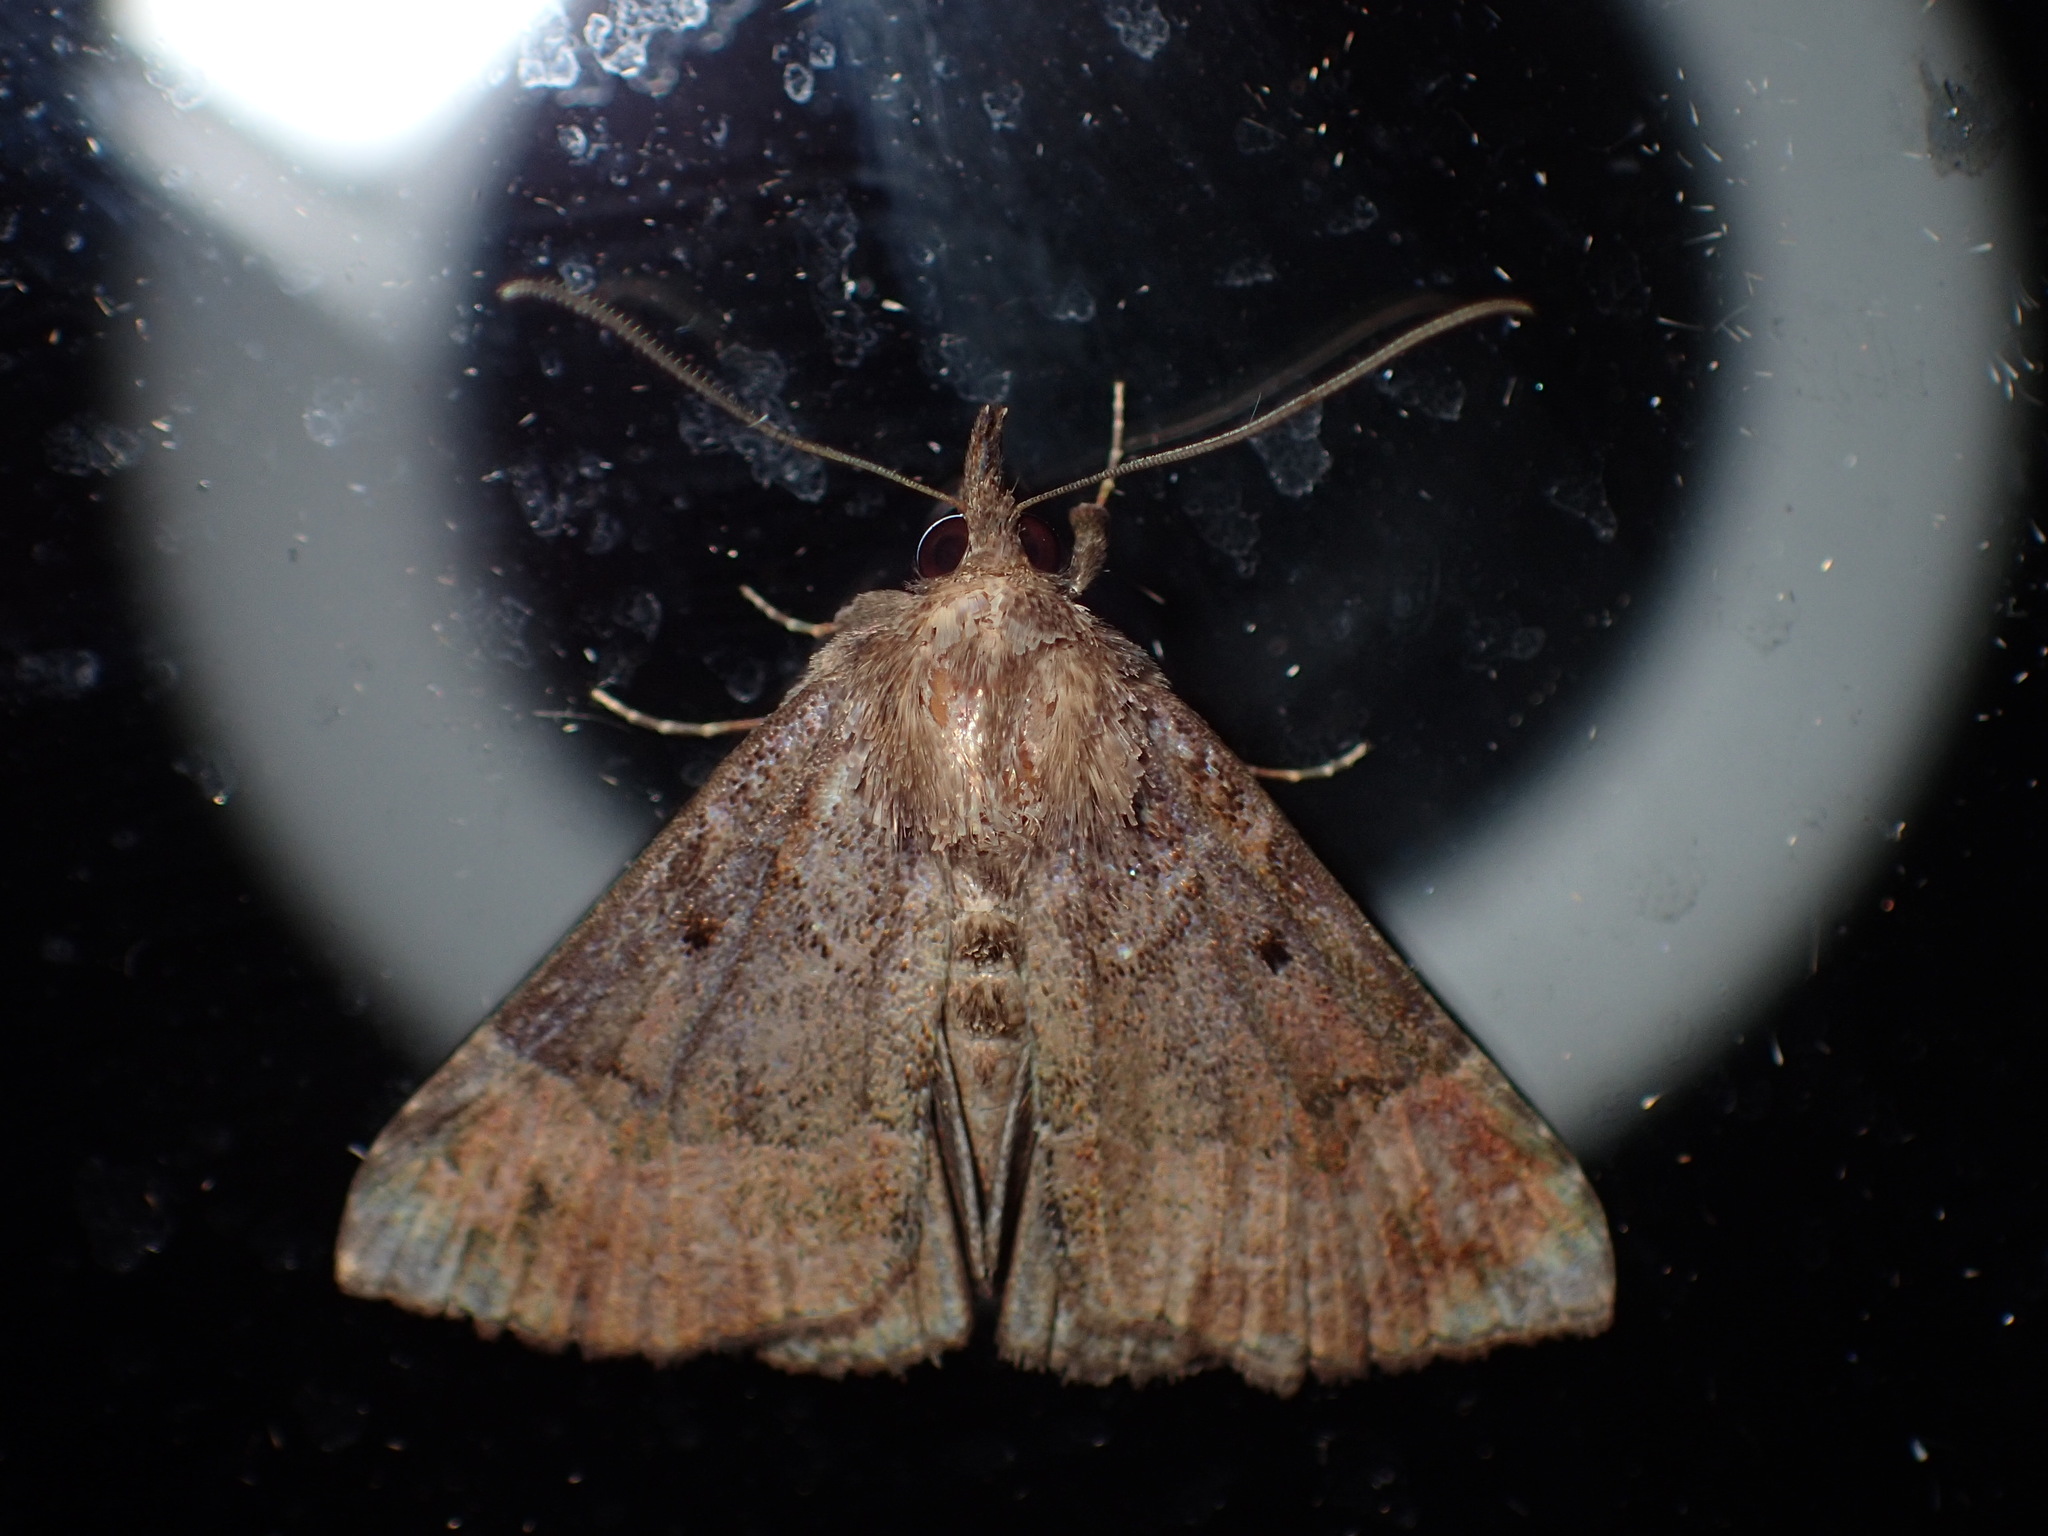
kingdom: Animalia
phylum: Arthropoda
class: Insecta
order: Lepidoptera
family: Erebidae
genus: Hypena
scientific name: Hypena palparia
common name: Mottled bomolocha moth
